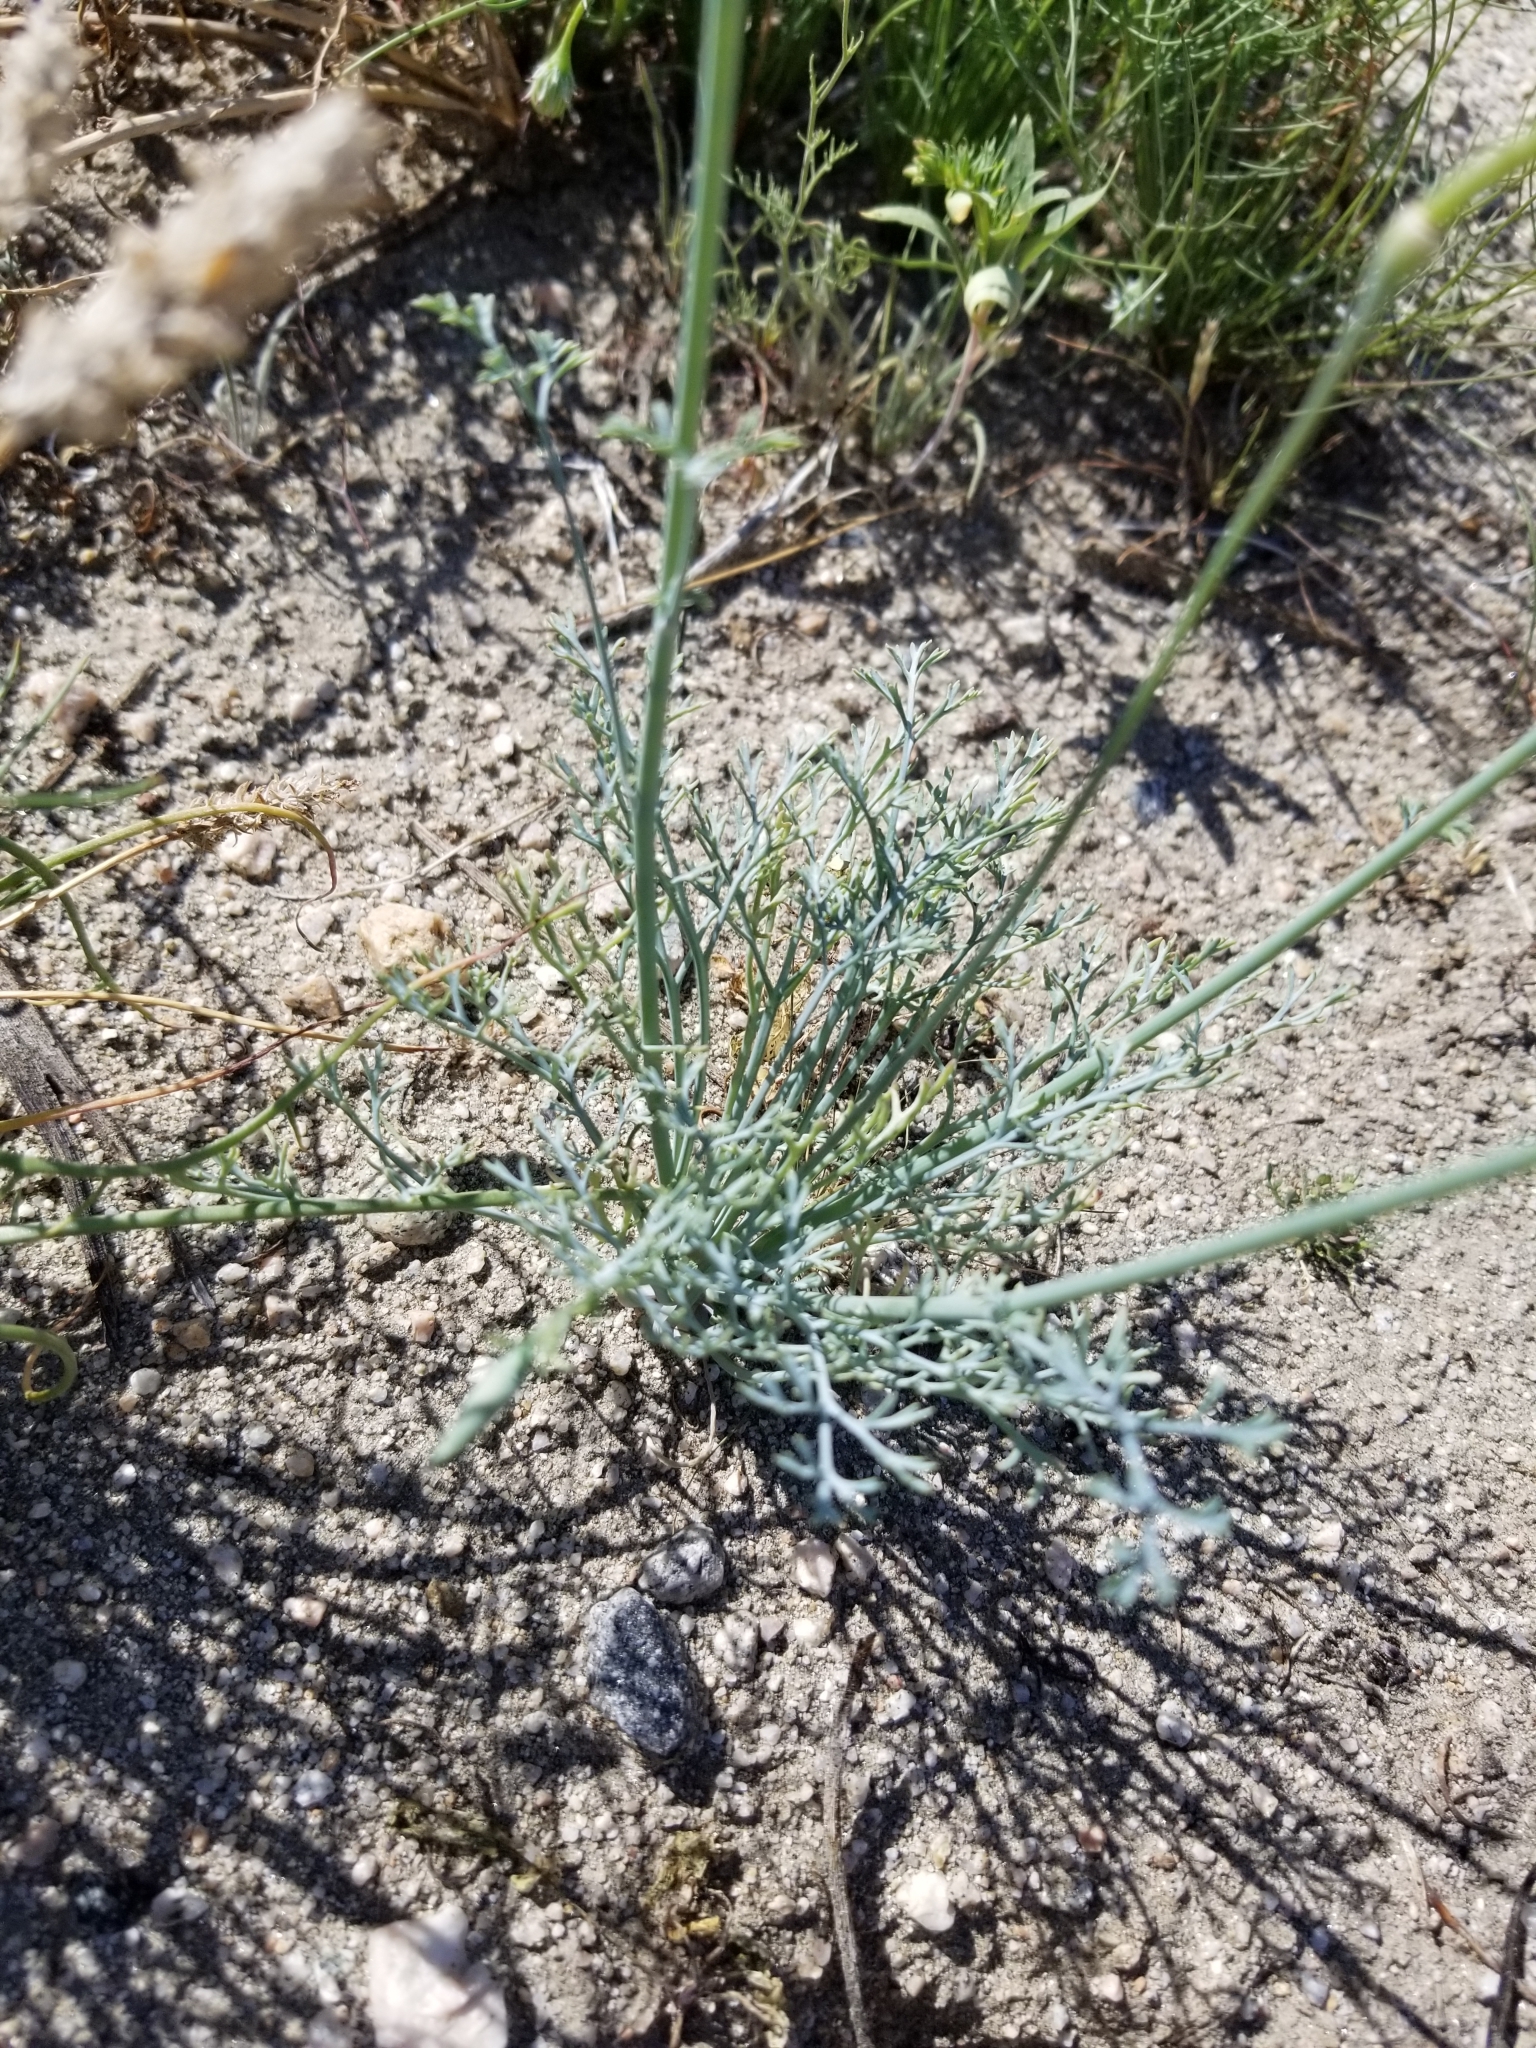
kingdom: Plantae
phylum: Tracheophyta
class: Magnoliopsida
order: Ranunculales
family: Papaveraceae
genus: Eschscholzia
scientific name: Eschscholzia parishii
